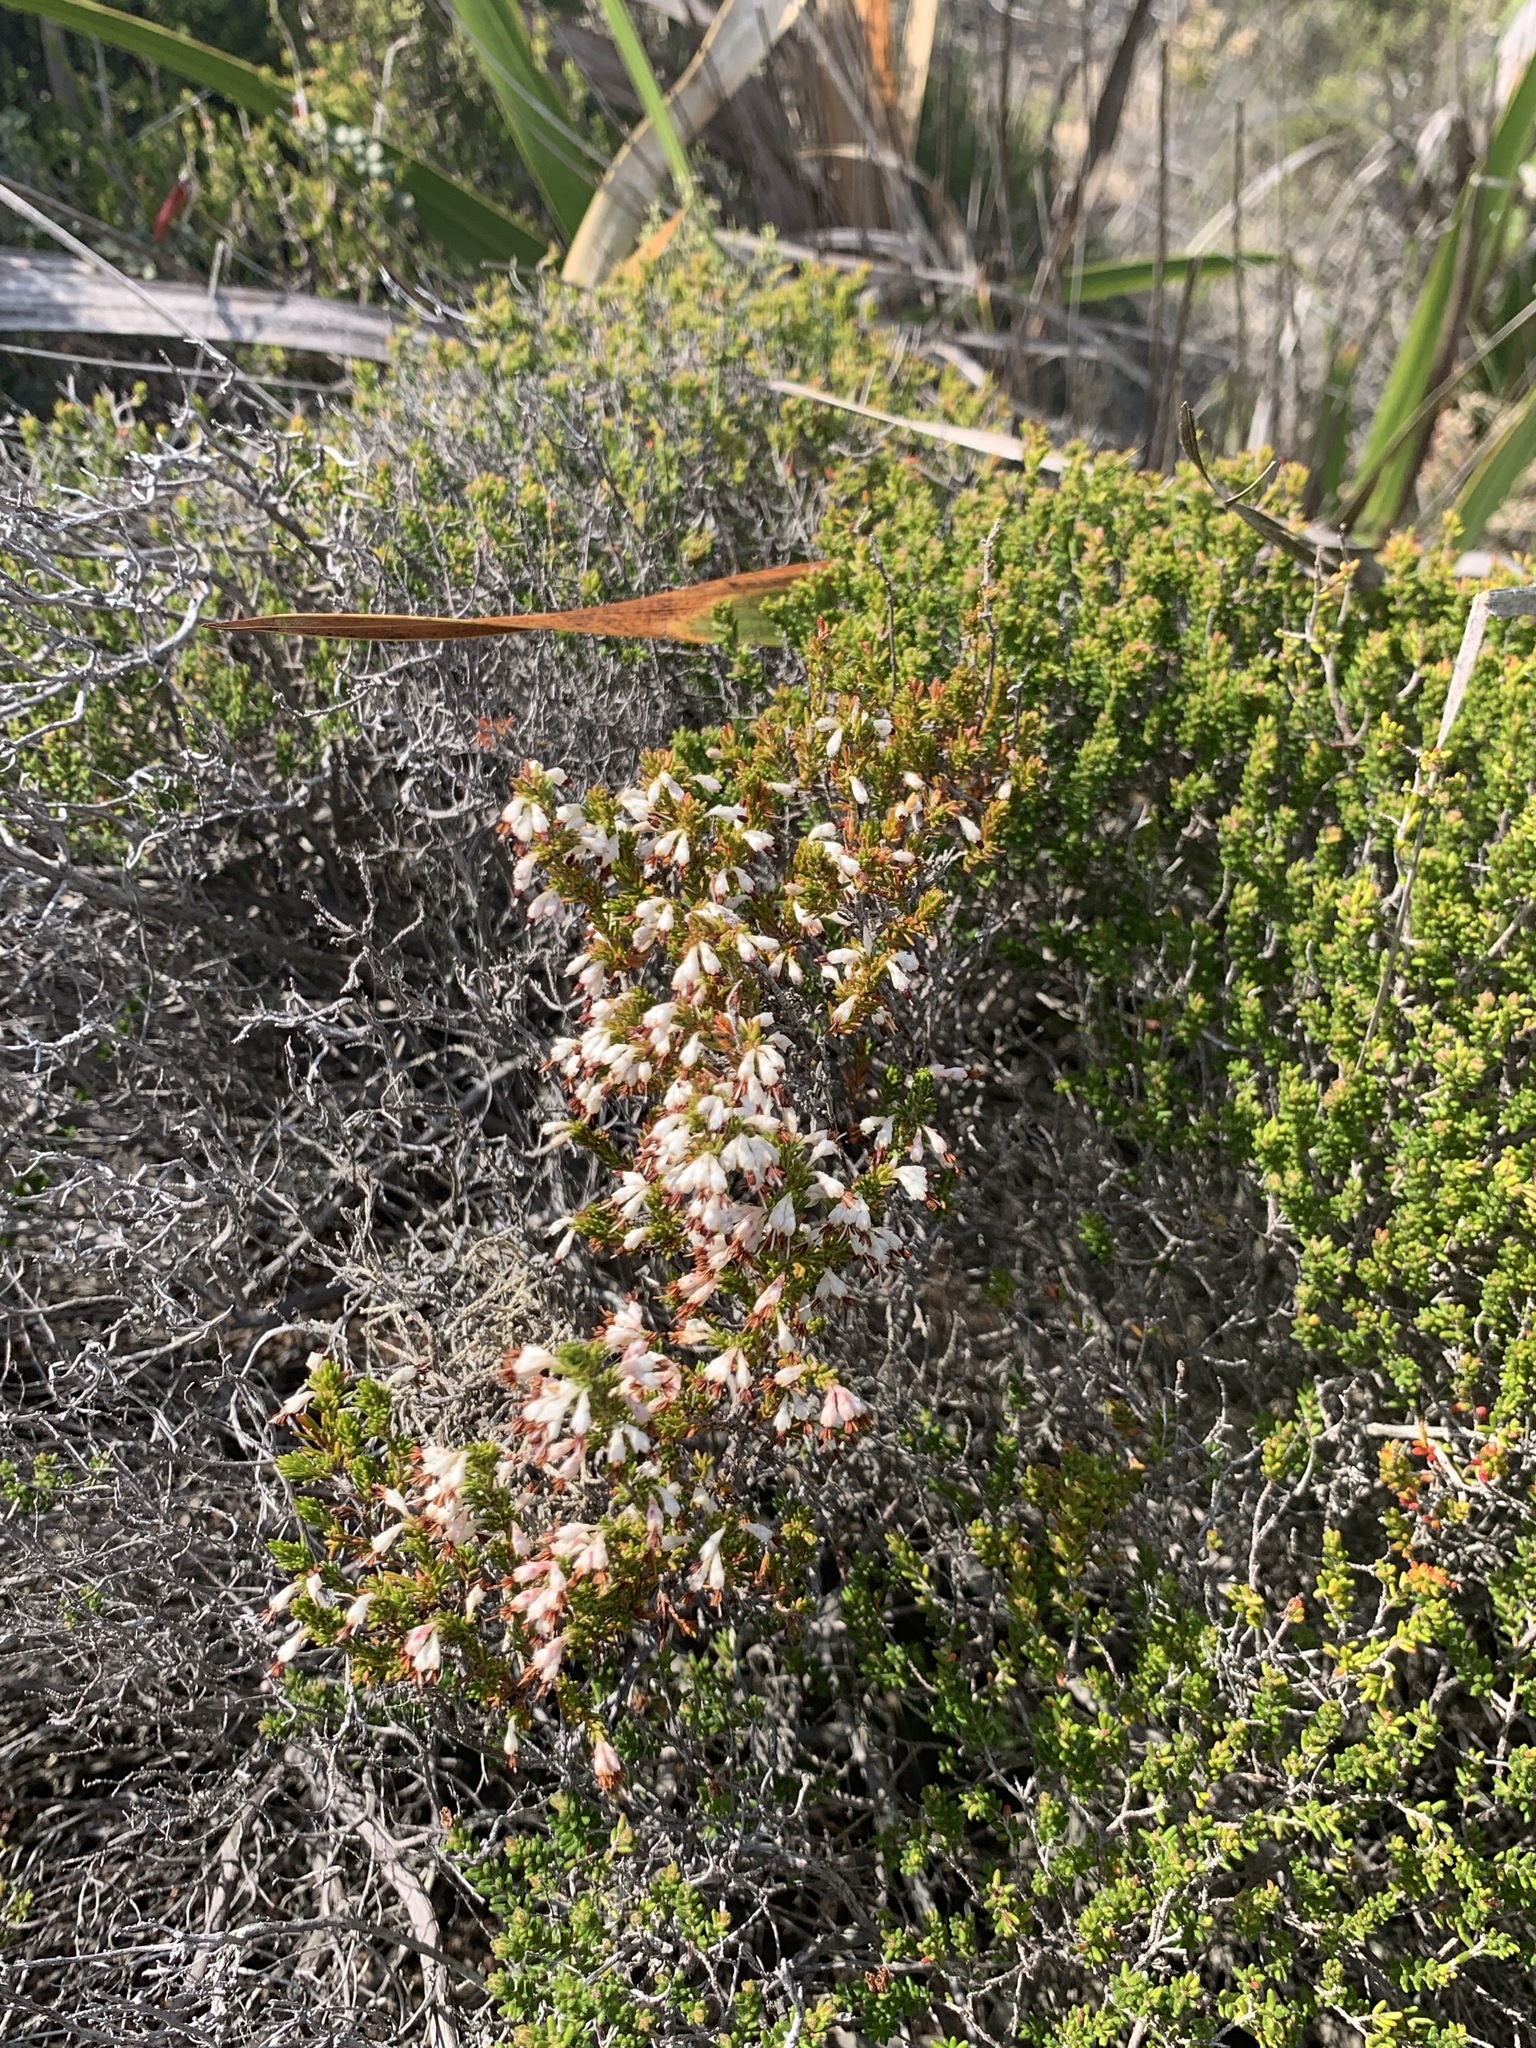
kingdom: Plantae
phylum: Tracheophyta
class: Magnoliopsida
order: Ericales
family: Ericaceae
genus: Erica
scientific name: Erica imbricata
